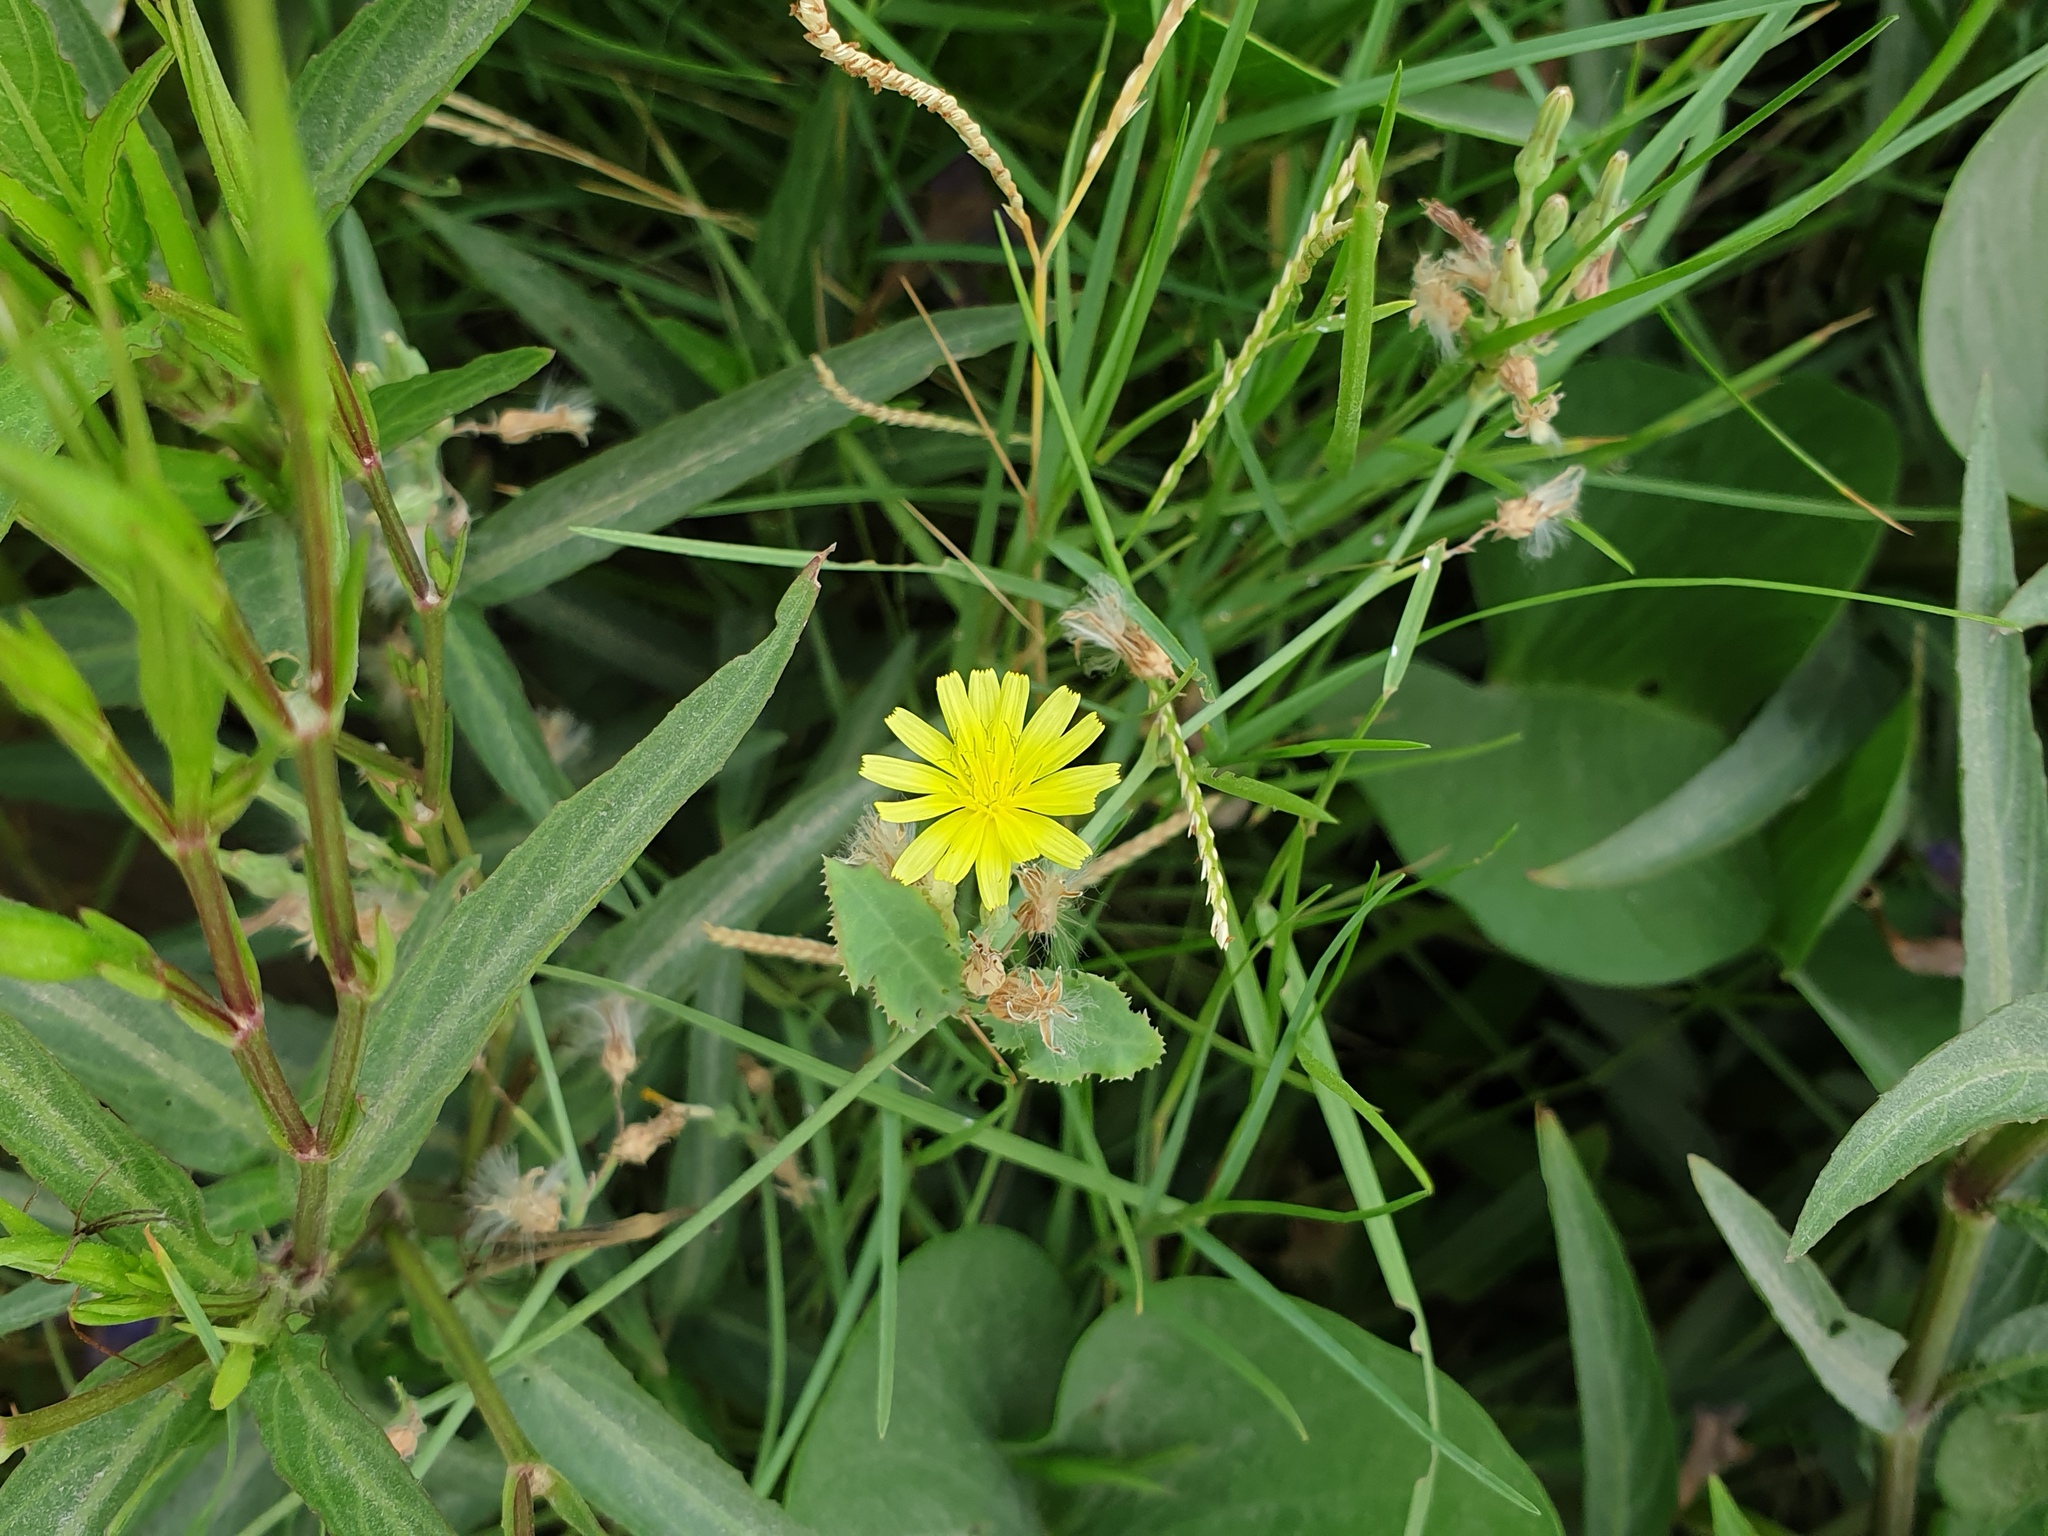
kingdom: Plantae
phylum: Tracheophyta
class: Magnoliopsida
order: Asterales
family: Asteraceae
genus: Launaea
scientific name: Launaea nudicaulis
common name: Naked launaea
